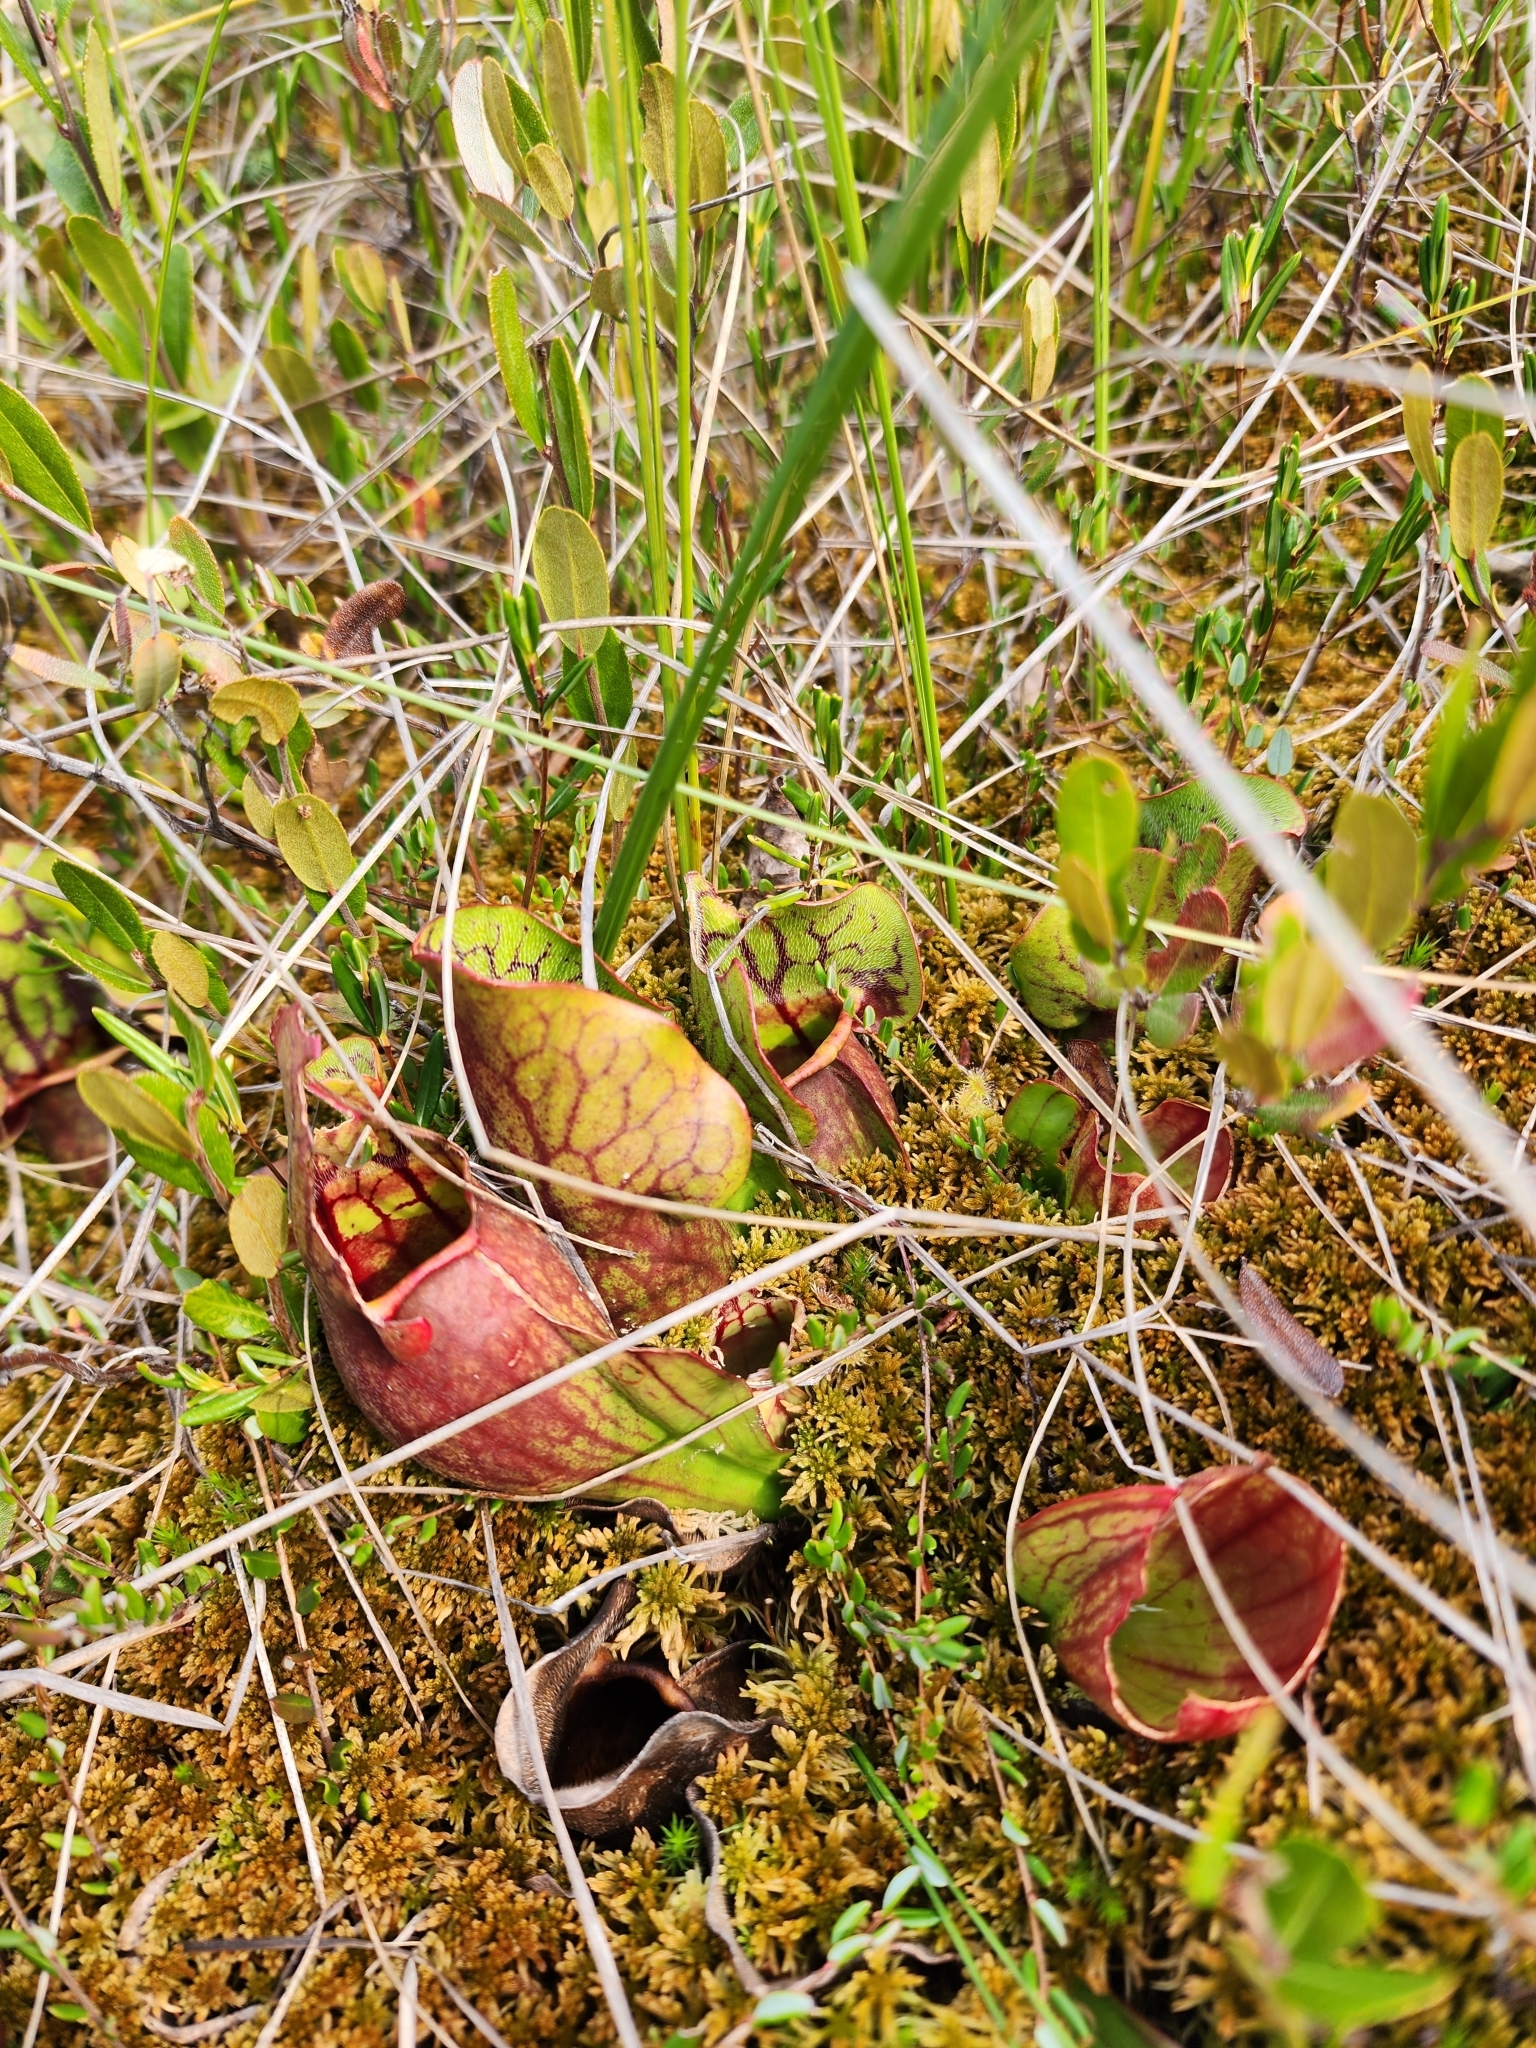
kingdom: Plantae
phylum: Tracheophyta
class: Magnoliopsida
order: Ericales
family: Sarraceniaceae
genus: Sarracenia
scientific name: Sarracenia purpurea
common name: Pitcherplant
